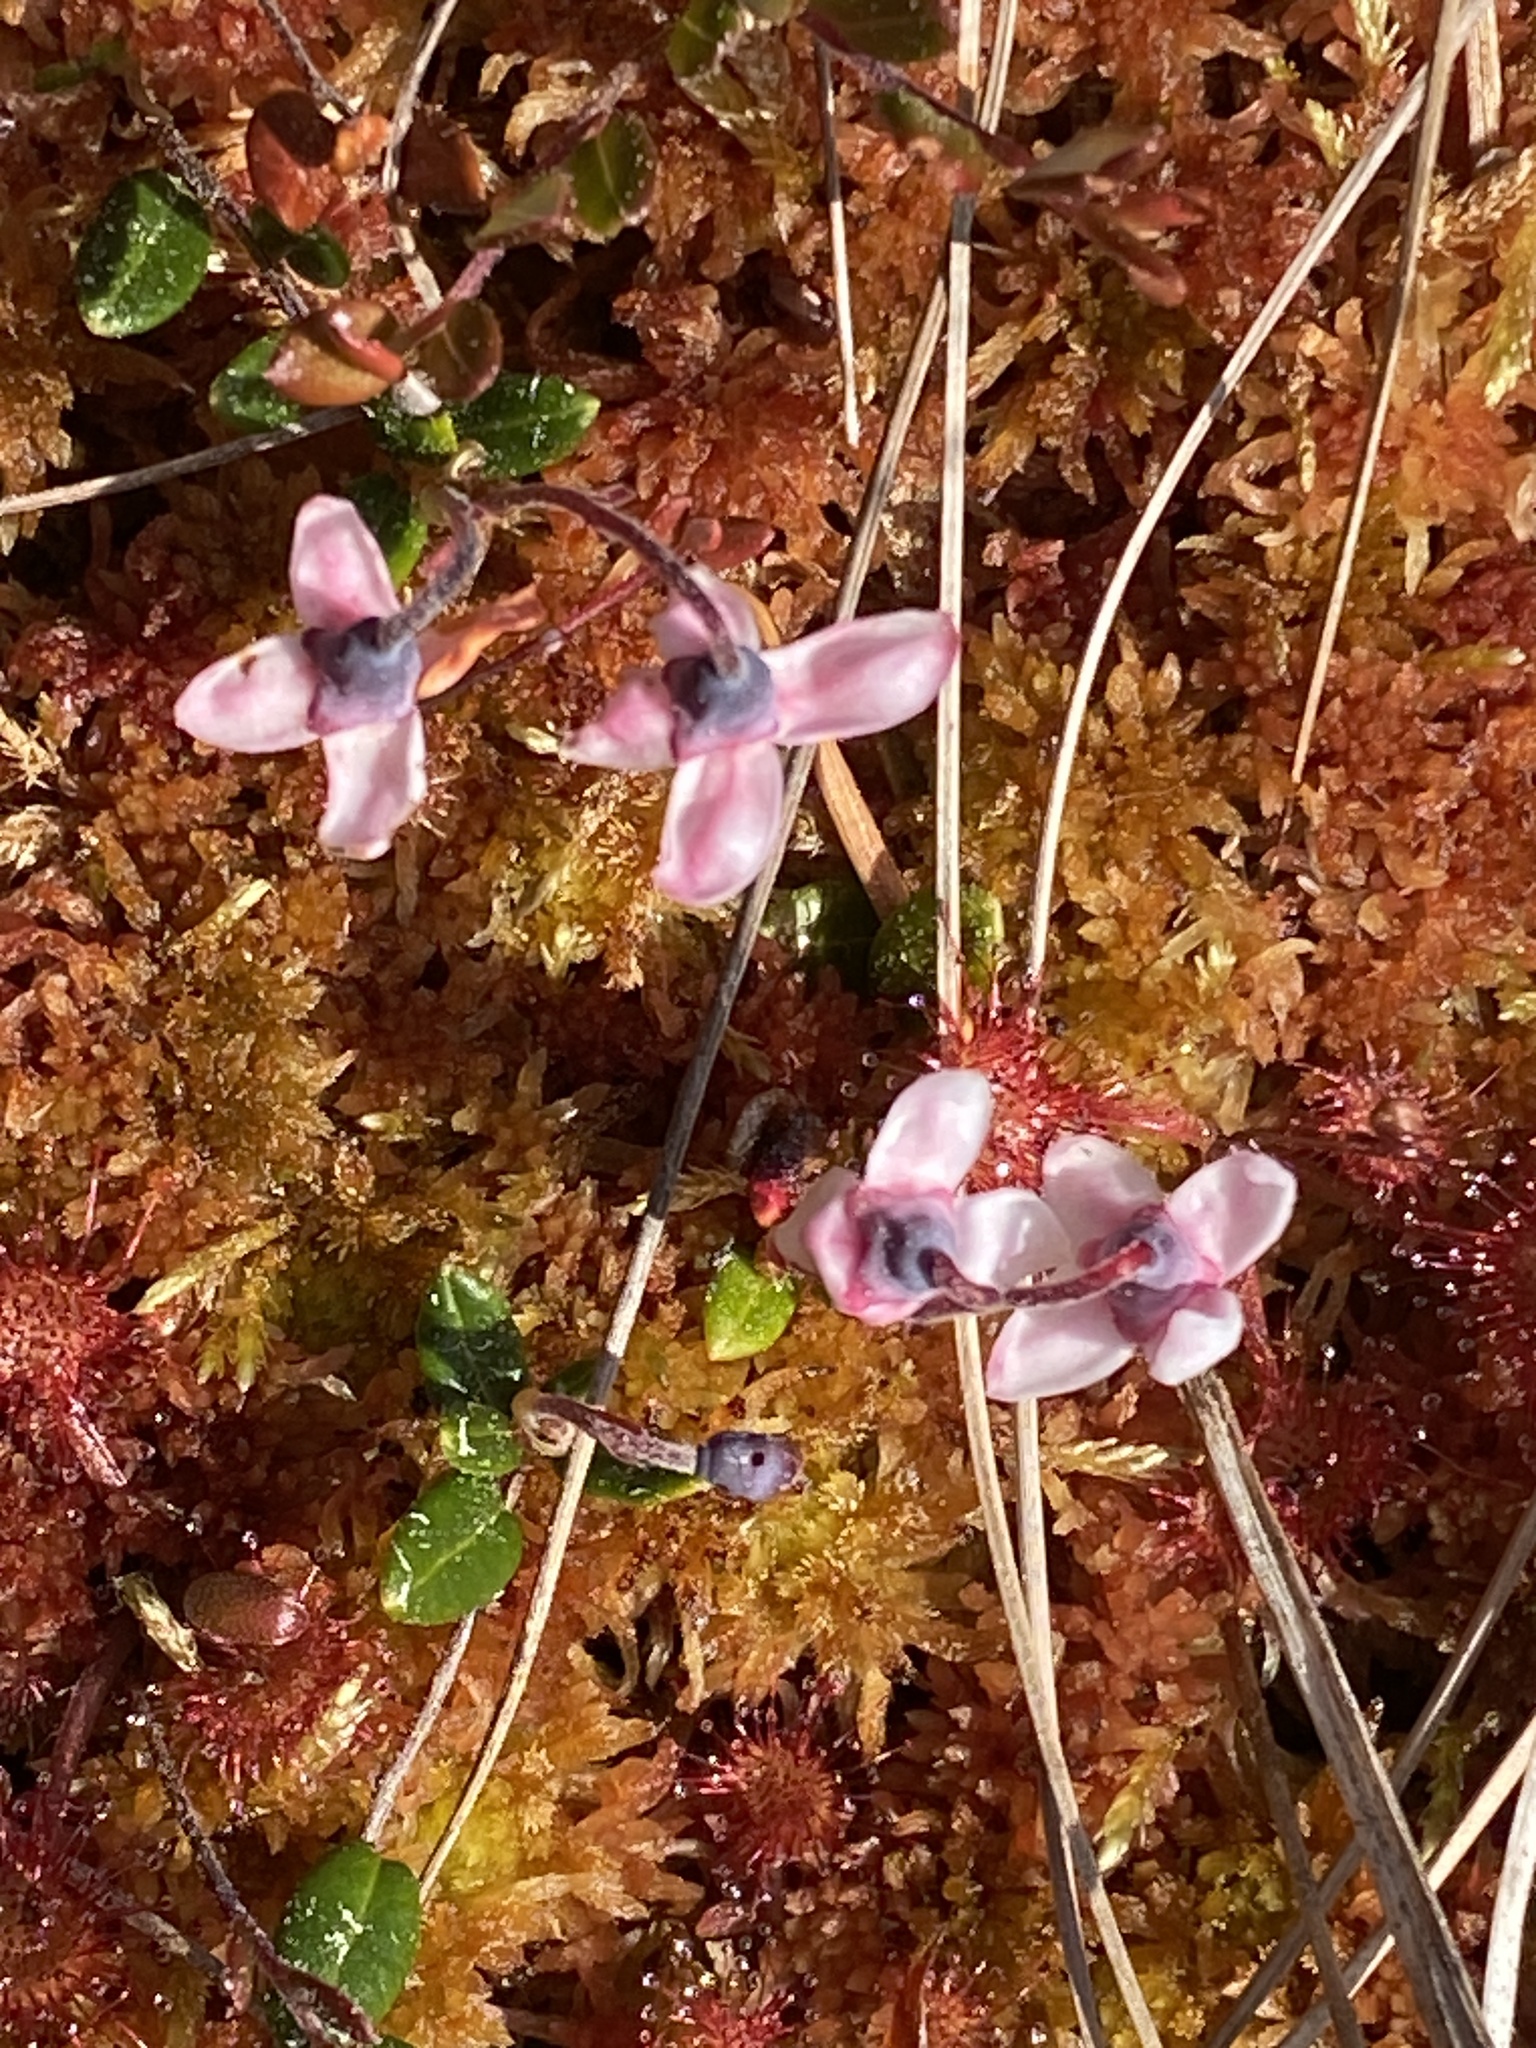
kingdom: Plantae
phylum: Tracheophyta
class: Magnoliopsida
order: Ericales
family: Ericaceae
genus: Vaccinium
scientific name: Vaccinium oxycoccos
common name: Cranberry
